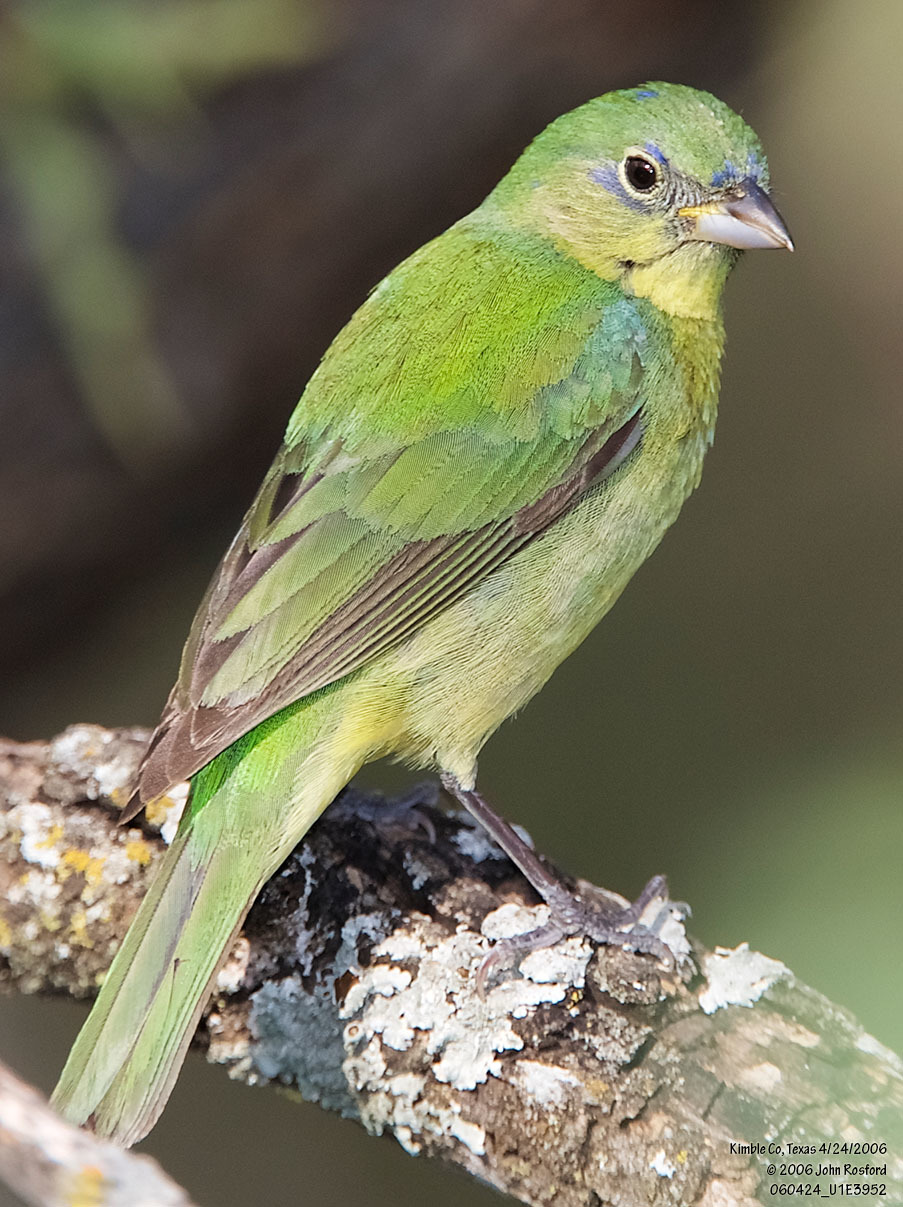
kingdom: Animalia
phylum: Chordata
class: Aves
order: Passeriformes
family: Cardinalidae
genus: Passerina
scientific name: Passerina ciris
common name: Painted bunting
